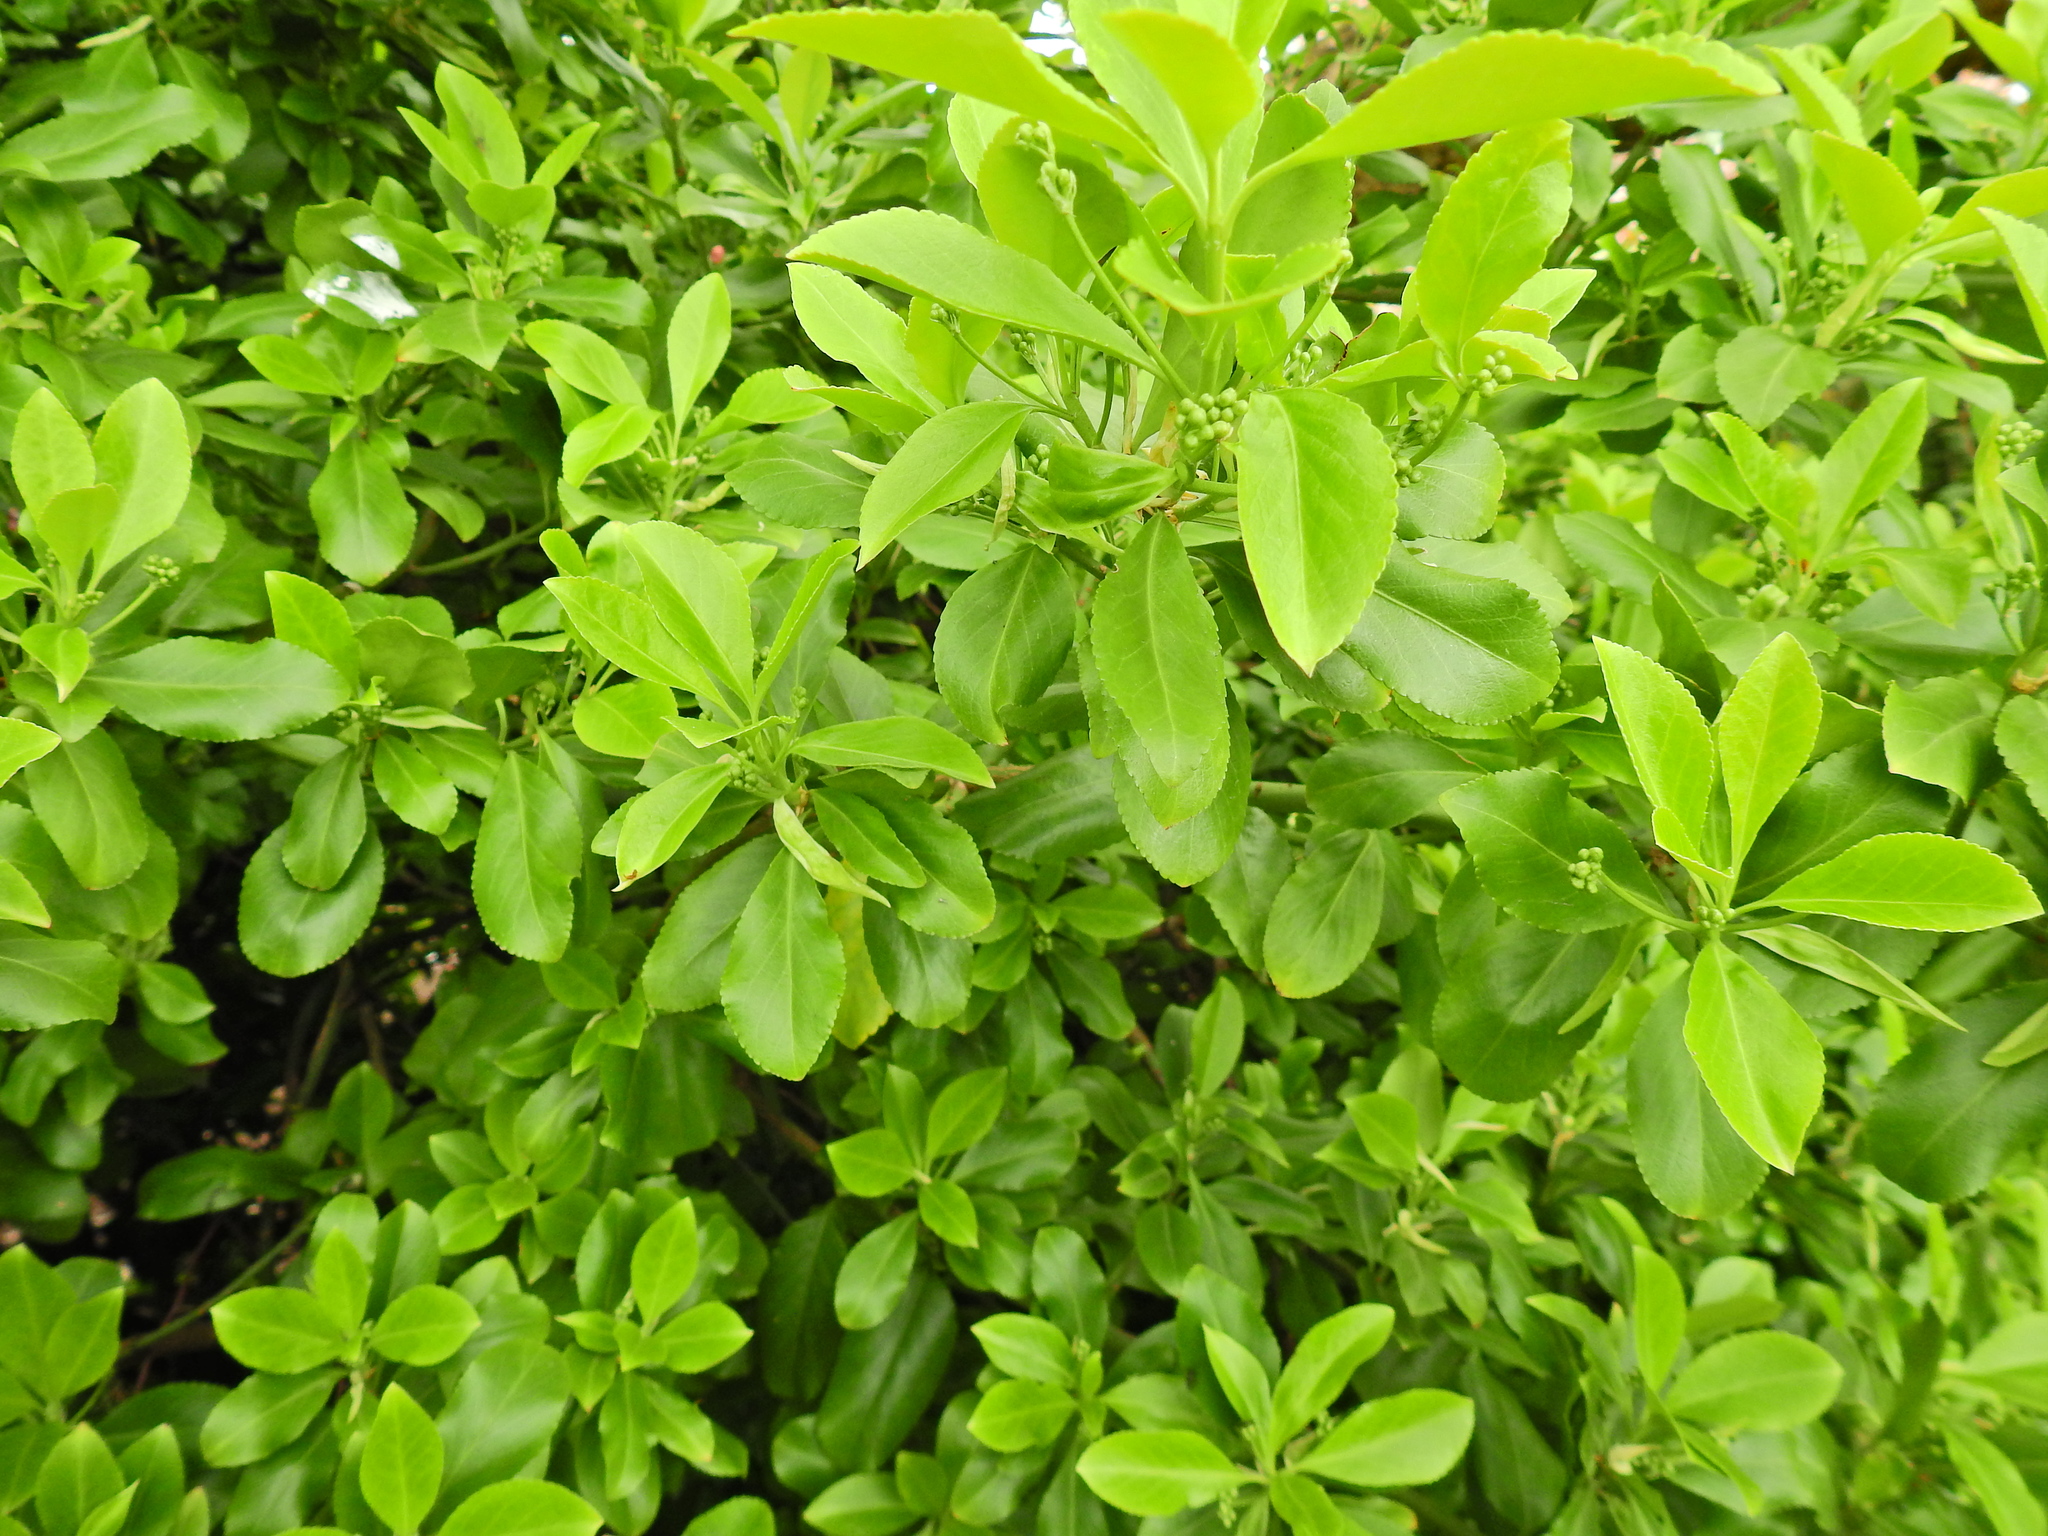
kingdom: Plantae
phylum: Tracheophyta
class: Magnoliopsida
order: Celastrales
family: Celastraceae
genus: Euonymus
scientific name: Euonymus japonicus
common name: Japanese spindletree
